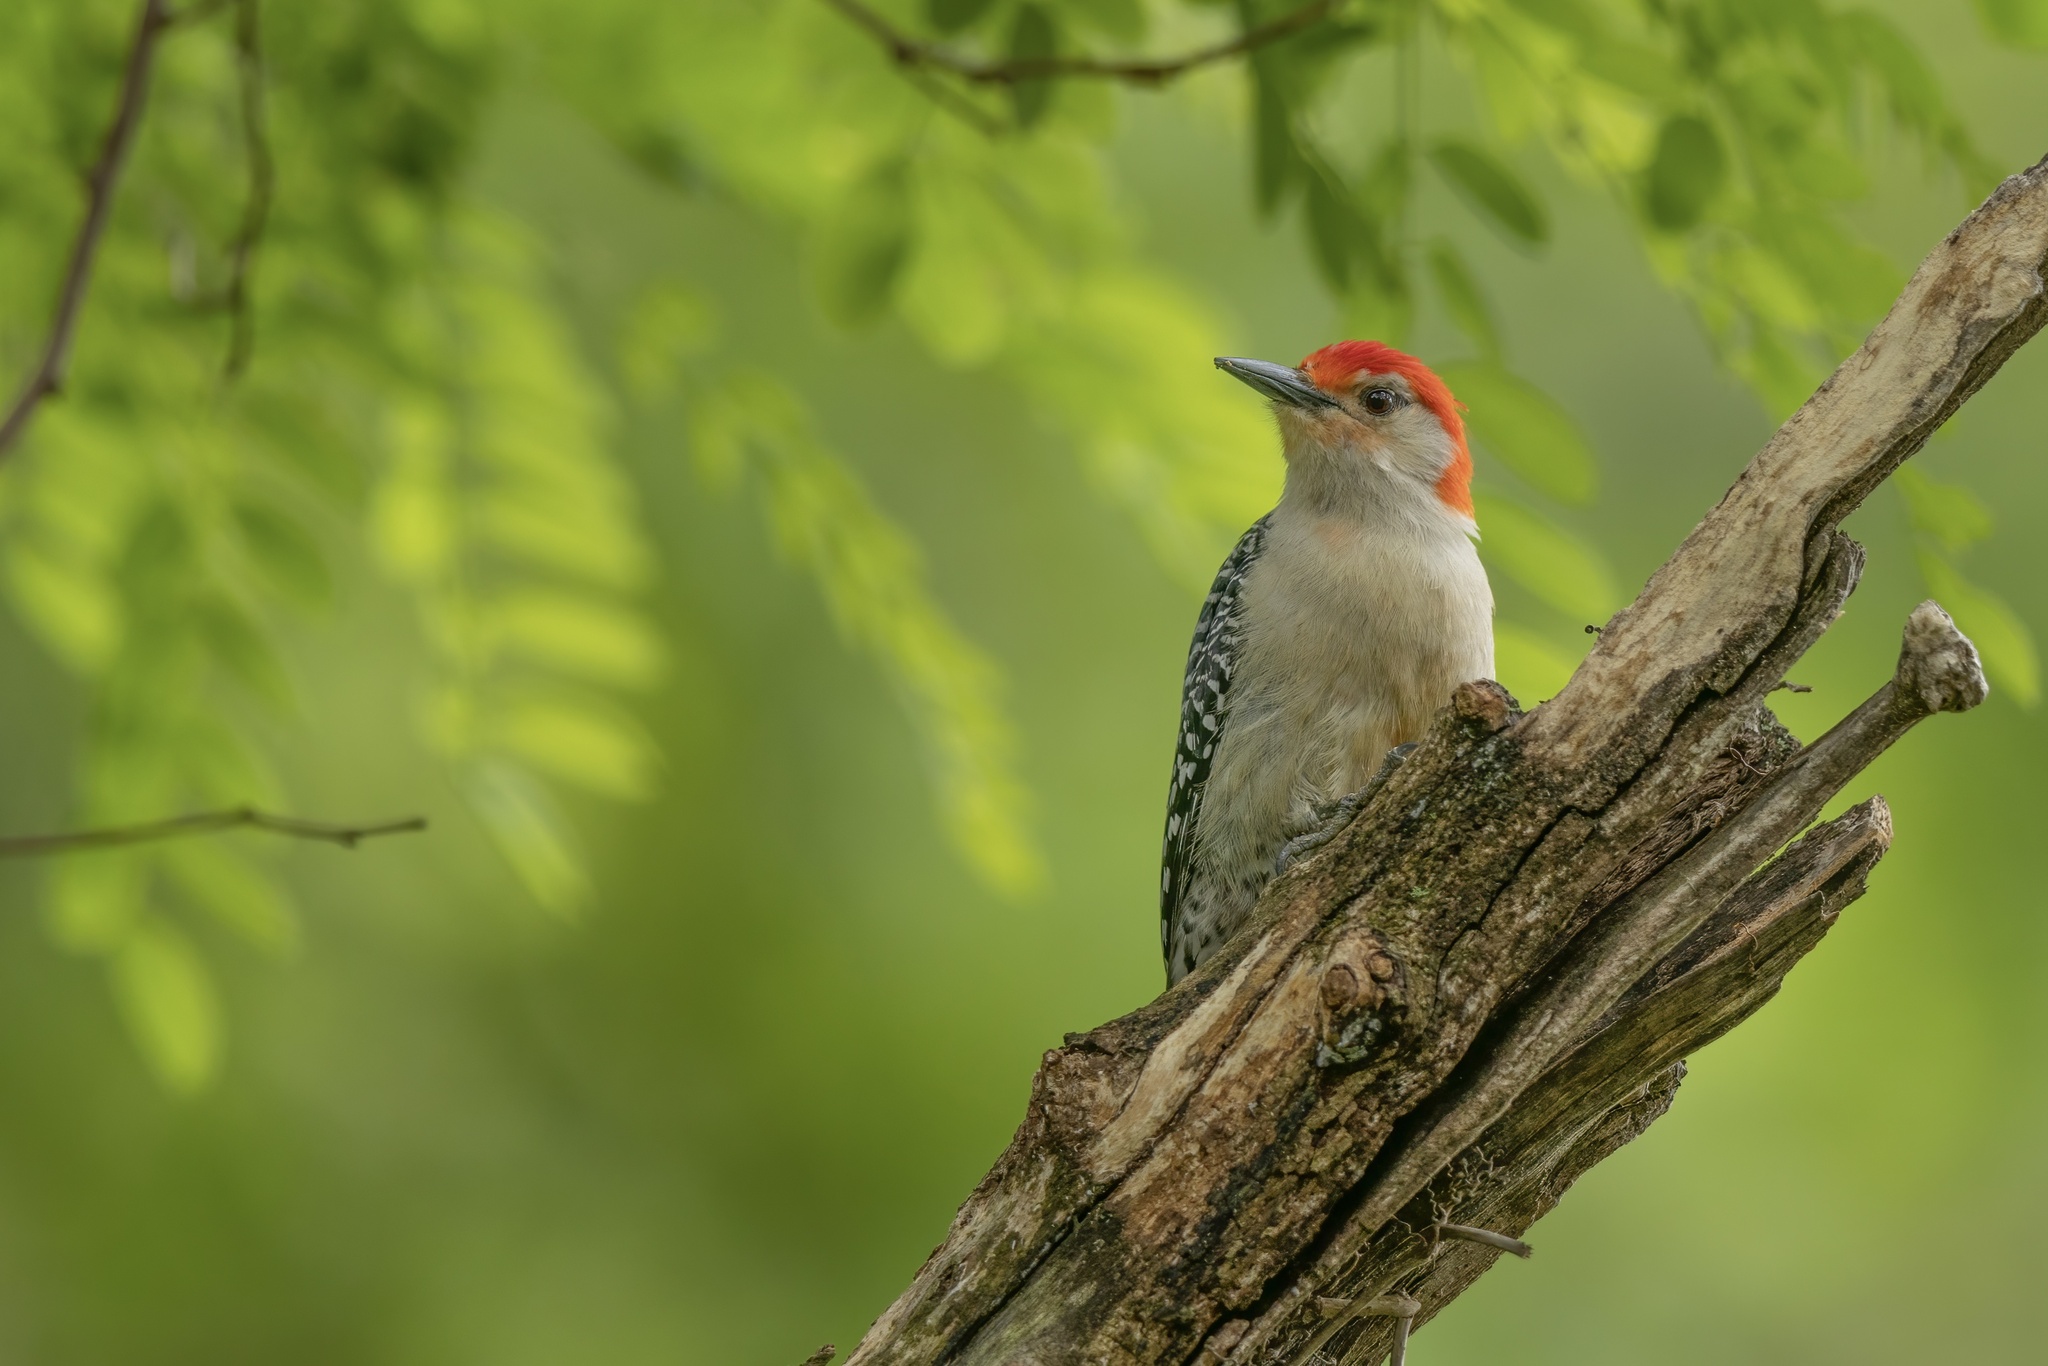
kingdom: Animalia
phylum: Chordata
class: Aves
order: Piciformes
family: Picidae
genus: Melanerpes
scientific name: Melanerpes carolinus
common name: Red-bellied woodpecker
